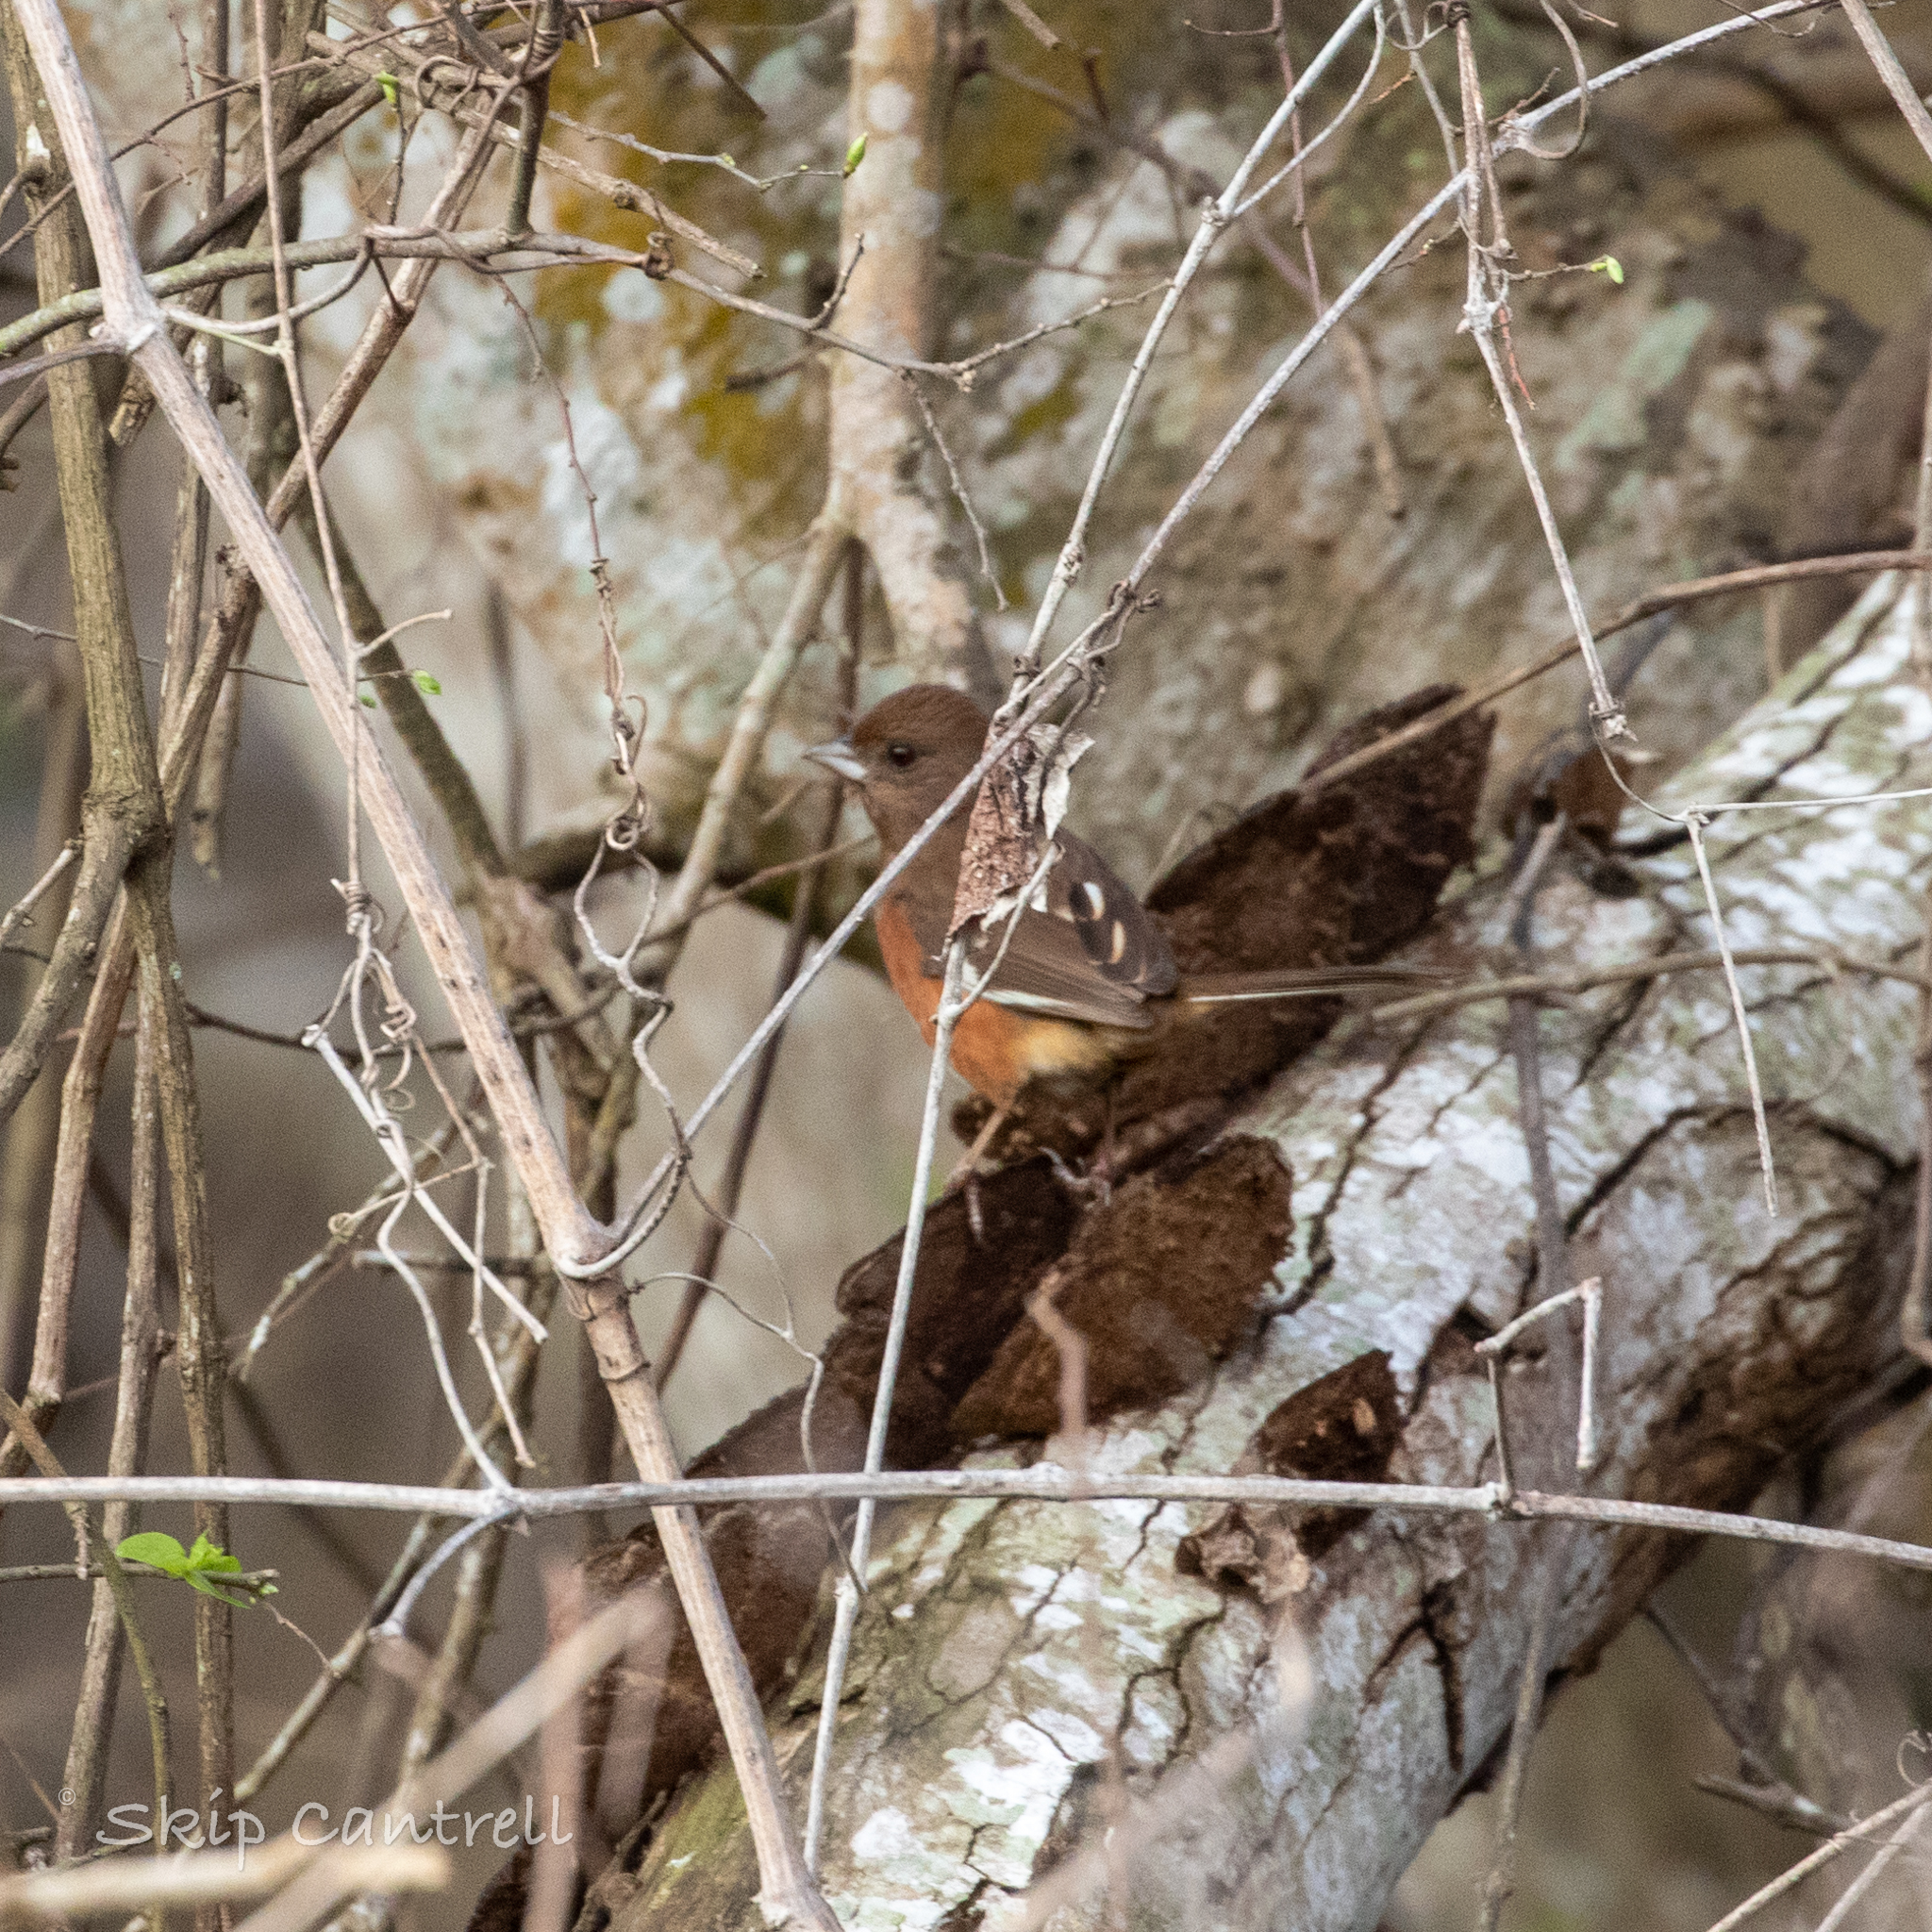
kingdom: Animalia
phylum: Chordata
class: Aves
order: Passeriformes
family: Passerellidae
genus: Pipilo
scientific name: Pipilo erythrophthalmus
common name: Eastern towhee
